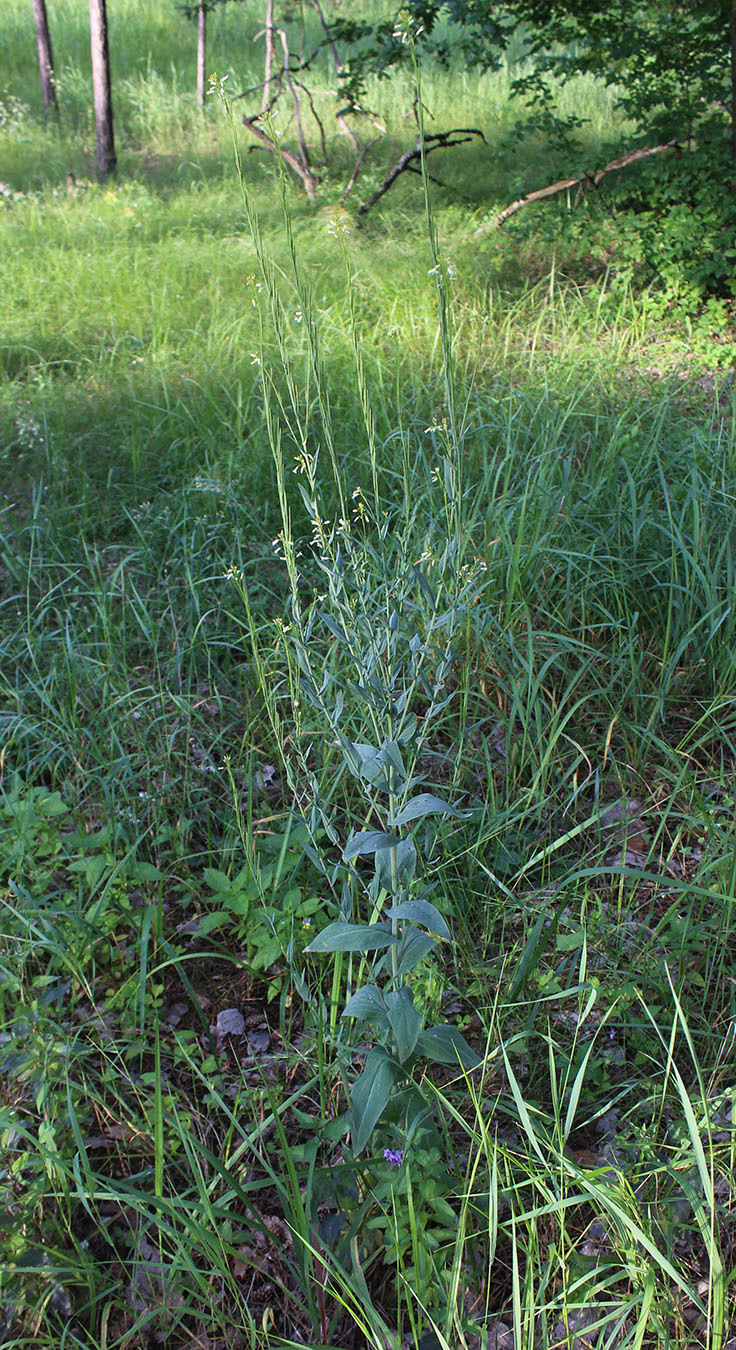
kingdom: Plantae
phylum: Tracheophyta
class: Magnoliopsida
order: Brassicales
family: Brassicaceae
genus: Turritis
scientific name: Turritis glabra
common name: Tower rockcress
